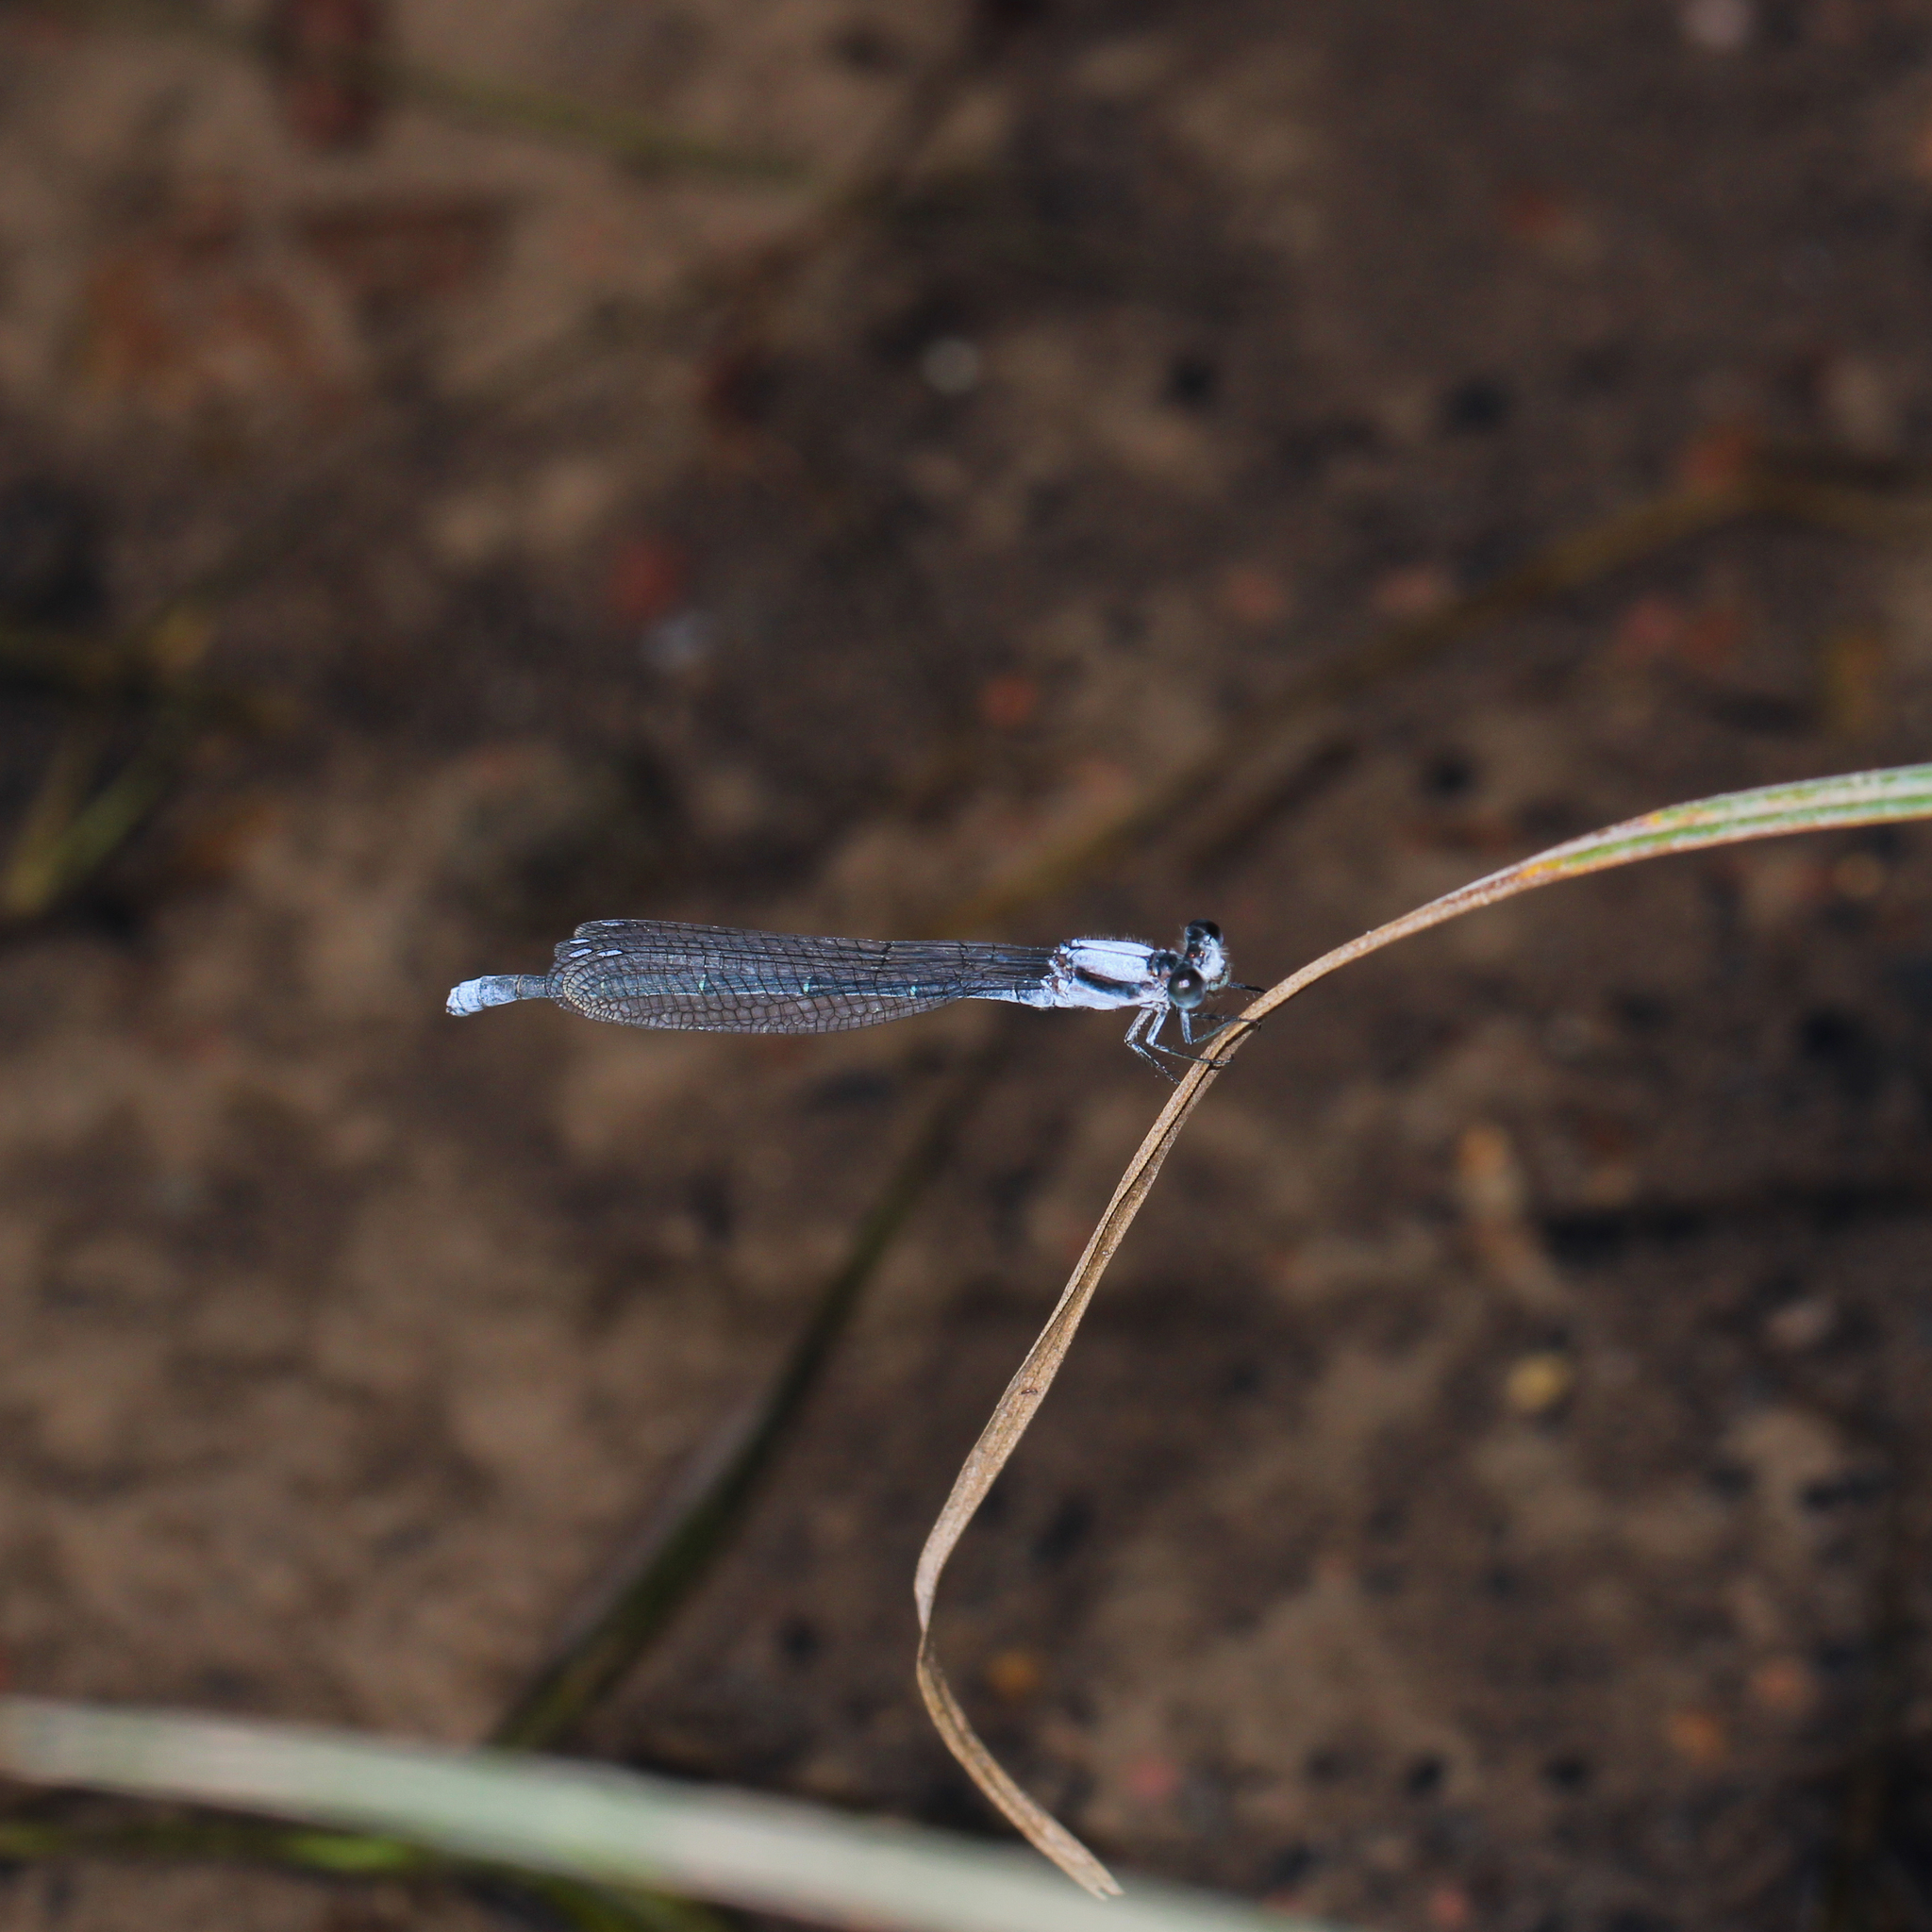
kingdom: Animalia
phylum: Arthropoda
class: Insecta
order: Odonata
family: Coenagrionidae
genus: Argia
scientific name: Argia moesta
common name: Powdered dancer
